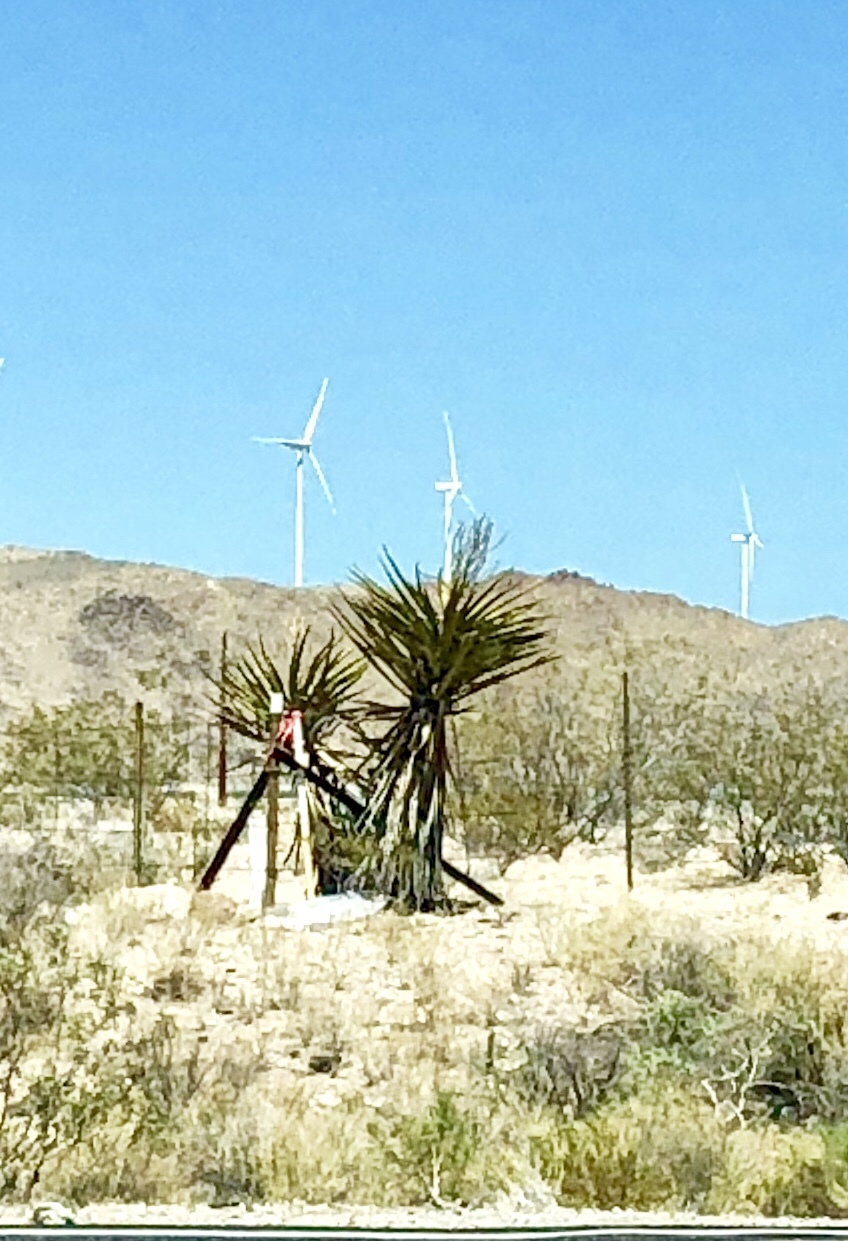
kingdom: Plantae
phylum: Tracheophyta
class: Liliopsida
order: Asparagales
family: Asparagaceae
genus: Yucca
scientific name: Yucca schidigera
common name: Mojave yucca
